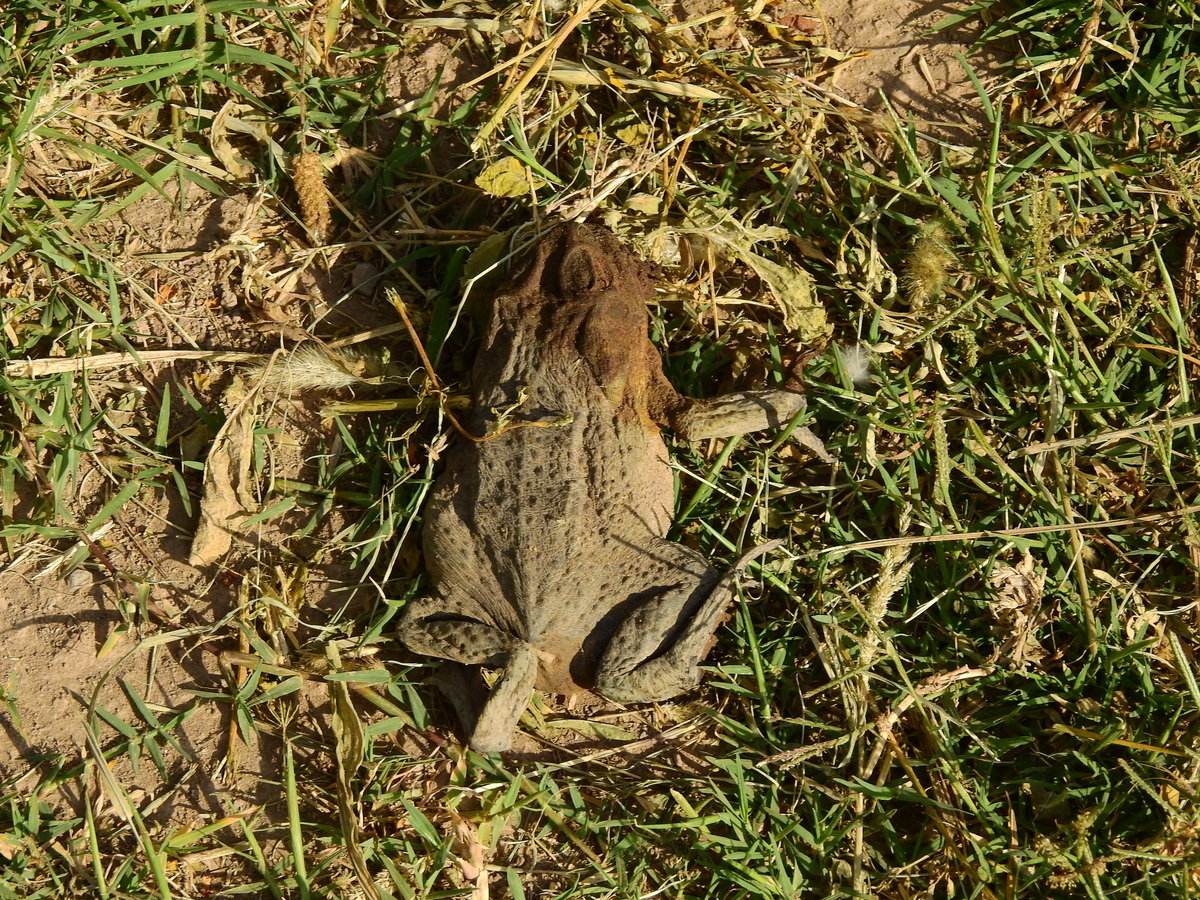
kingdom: Animalia
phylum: Chordata
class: Amphibia
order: Anura
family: Bufonidae
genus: Rhinella
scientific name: Rhinella arenarum
